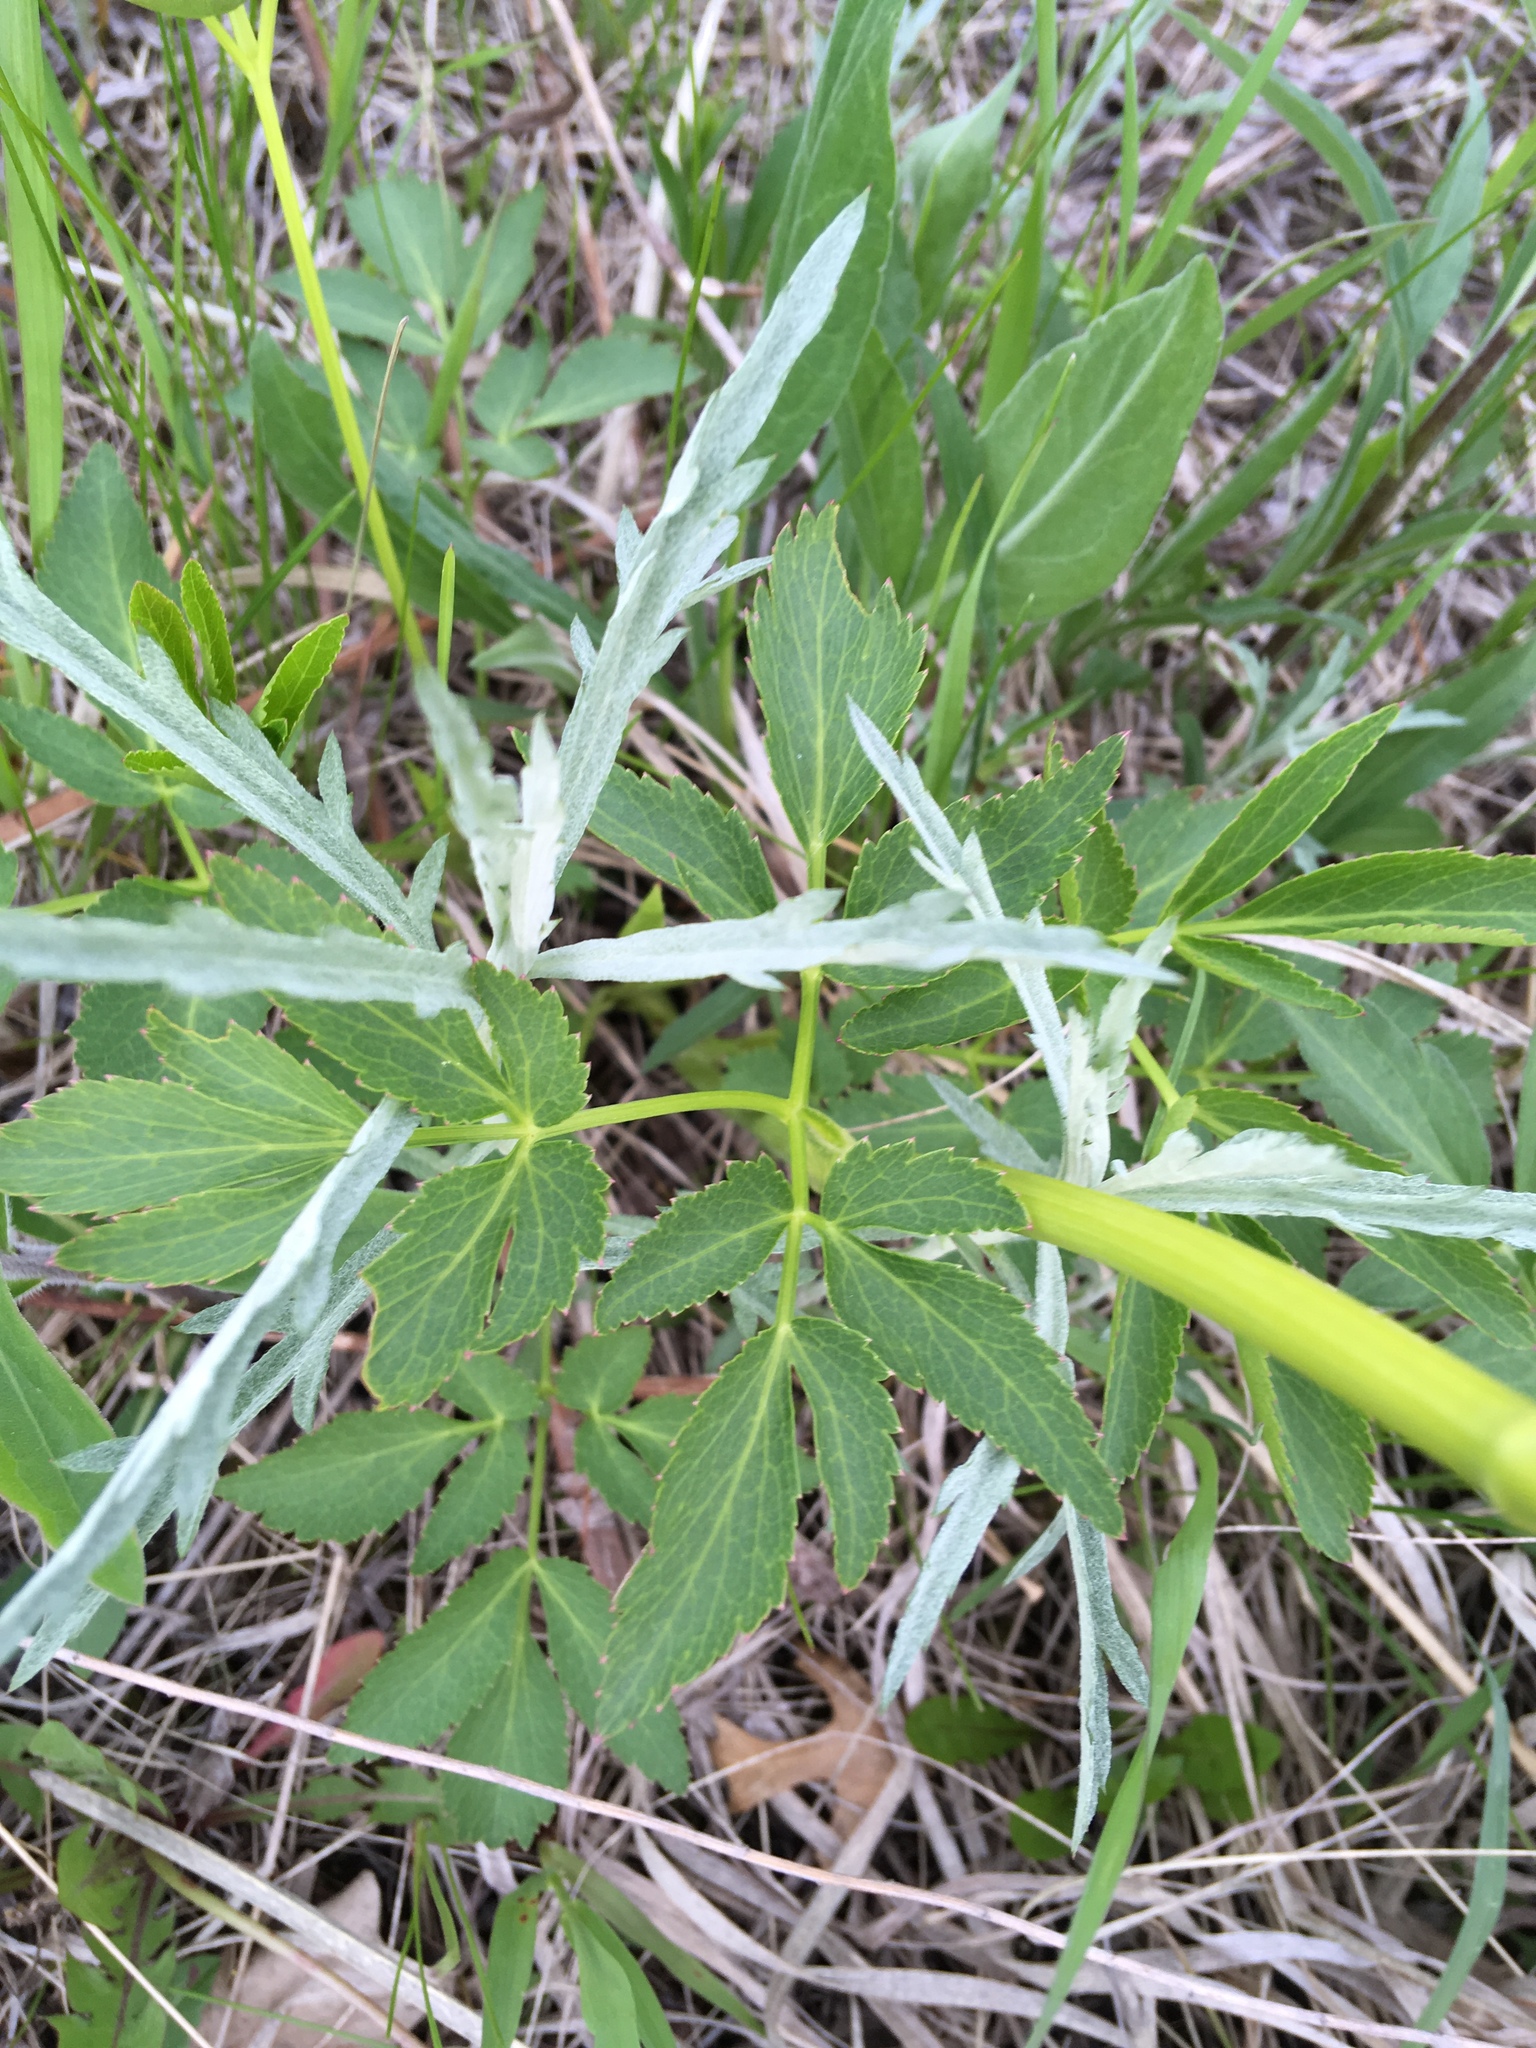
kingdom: Plantae
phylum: Tracheophyta
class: Magnoliopsida
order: Apiales
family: Apiaceae
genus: Zizia
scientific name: Zizia aurea
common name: Golden alexanders
